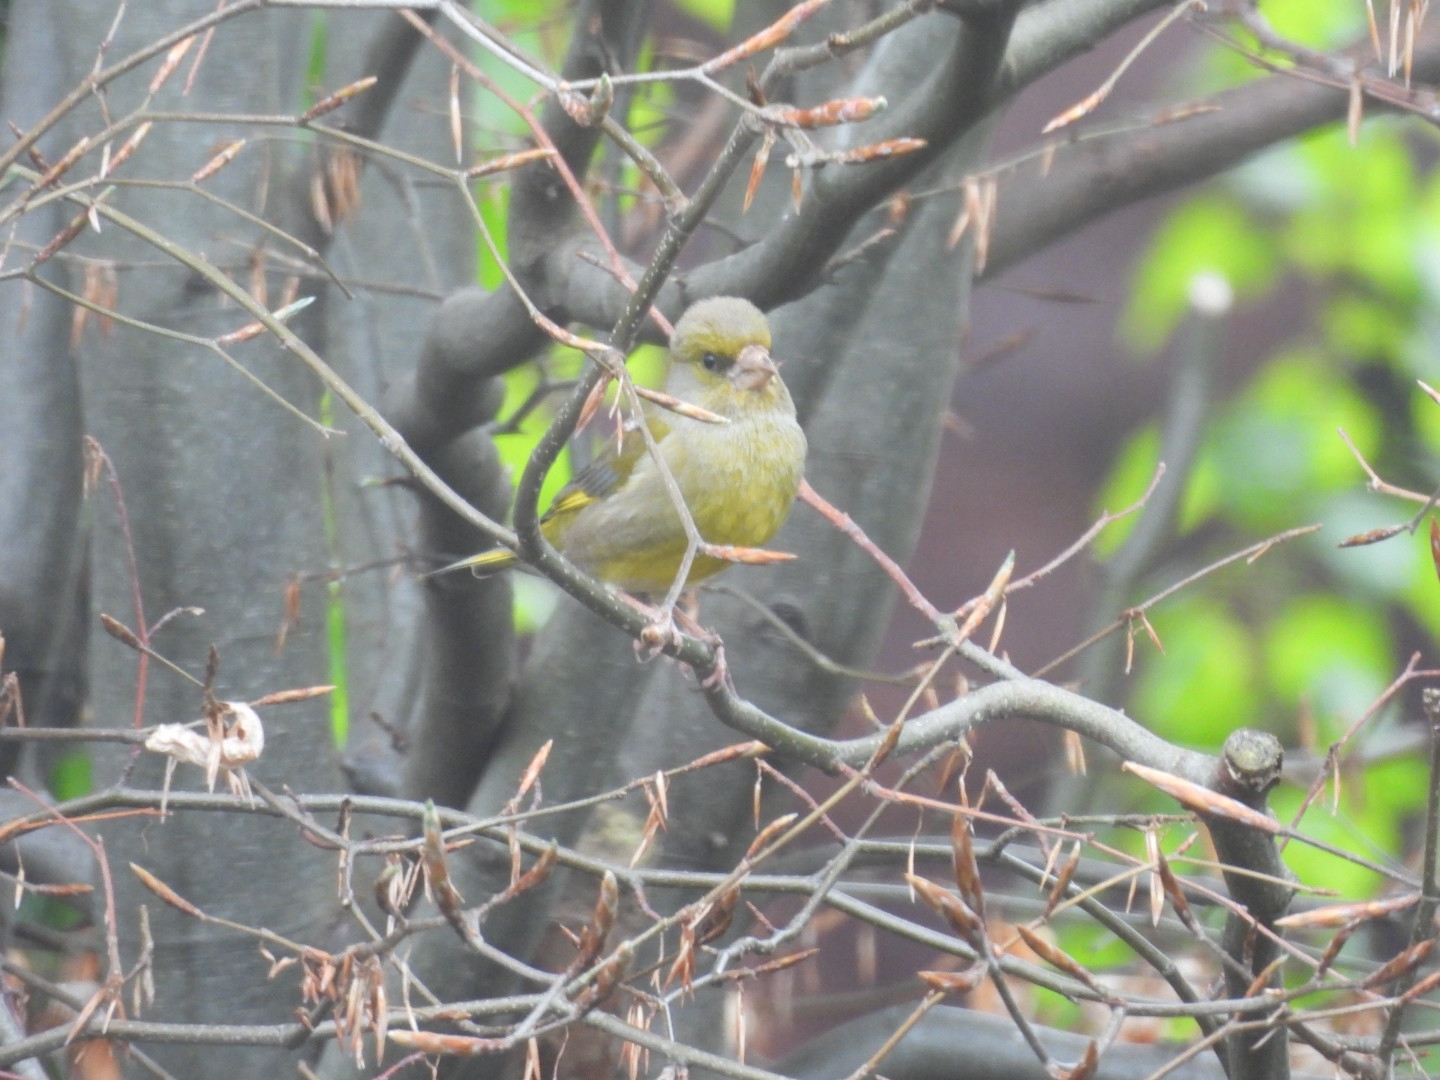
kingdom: Plantae
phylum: Tracheophyta
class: Liliopsida
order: Poales
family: Poaceae
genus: Chloris
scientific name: Chloris chloris
